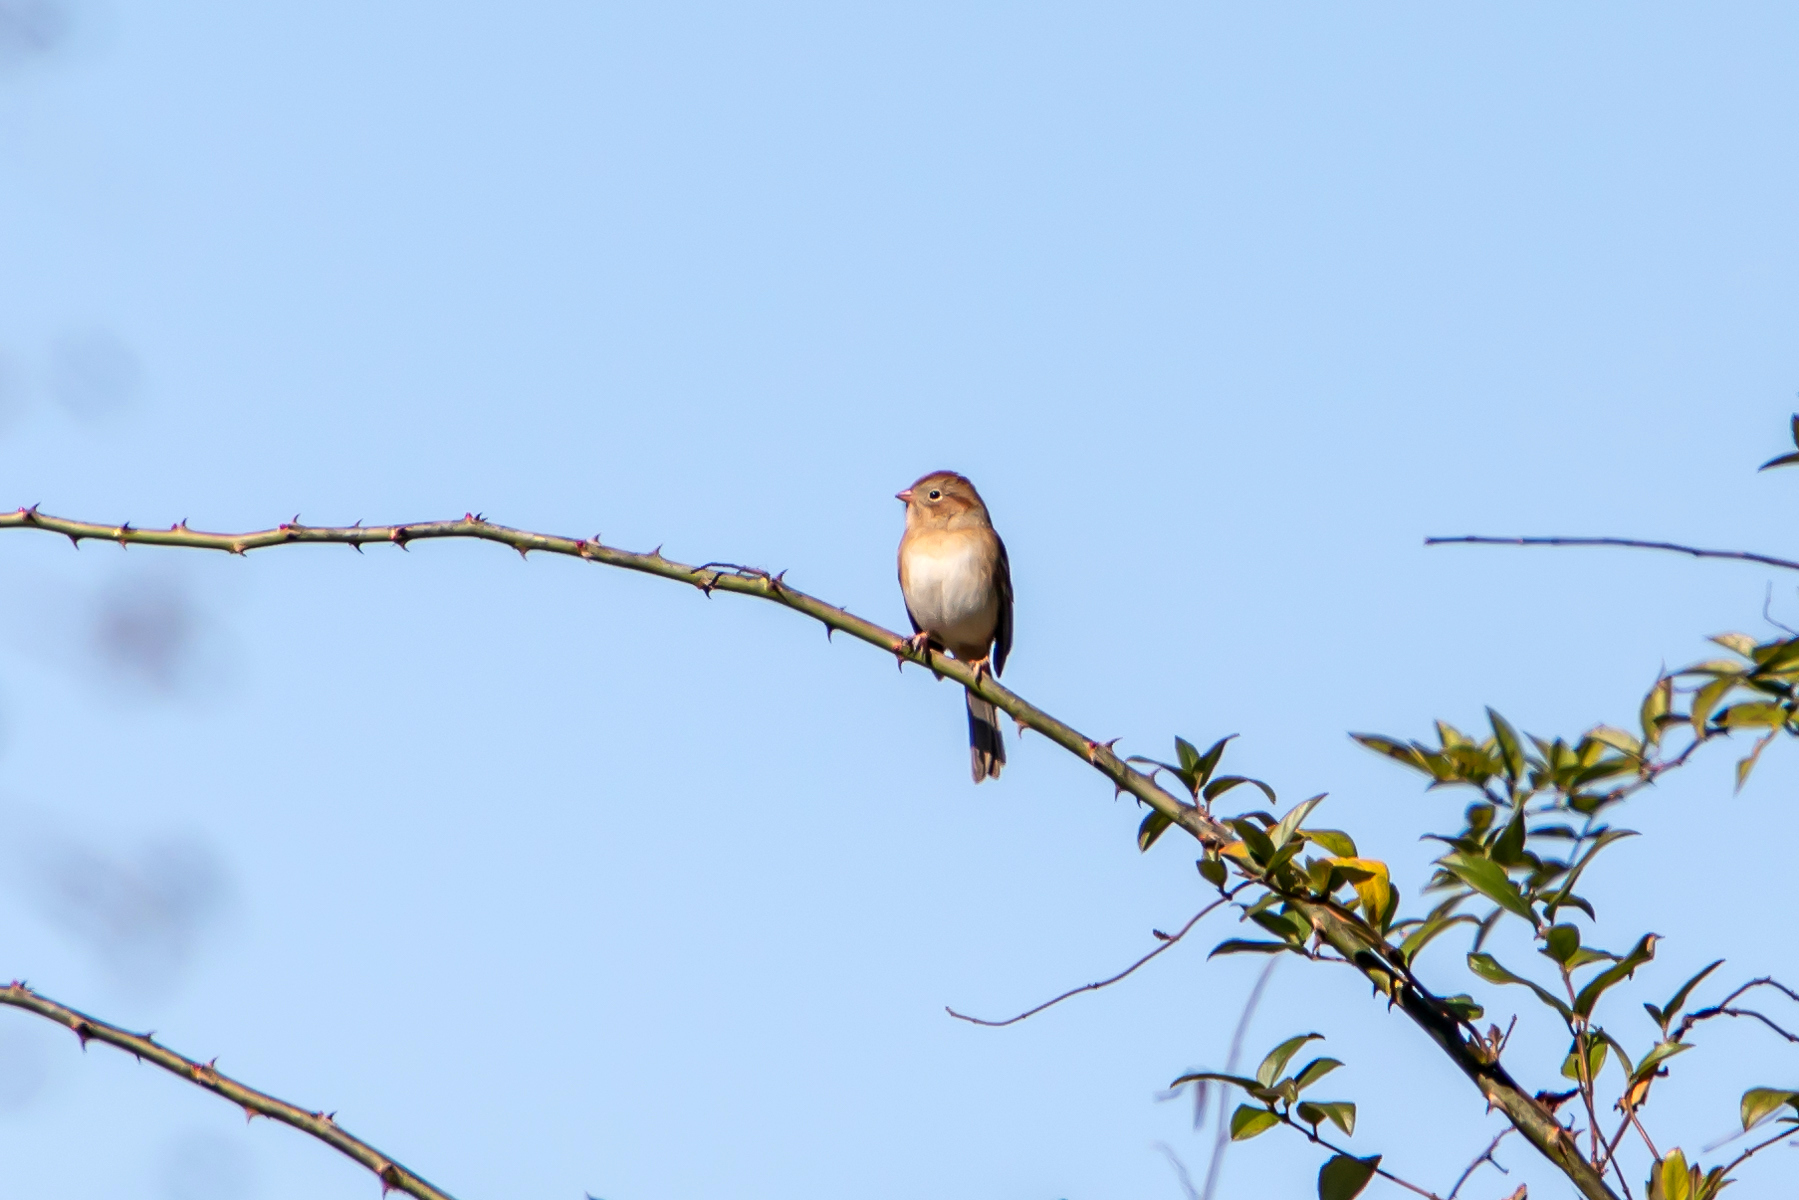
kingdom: Animalia
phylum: Chordata
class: Aves
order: Passeriformes
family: Passerellidae
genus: Spizella
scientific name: Spizella pusilla
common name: Field sparrow
